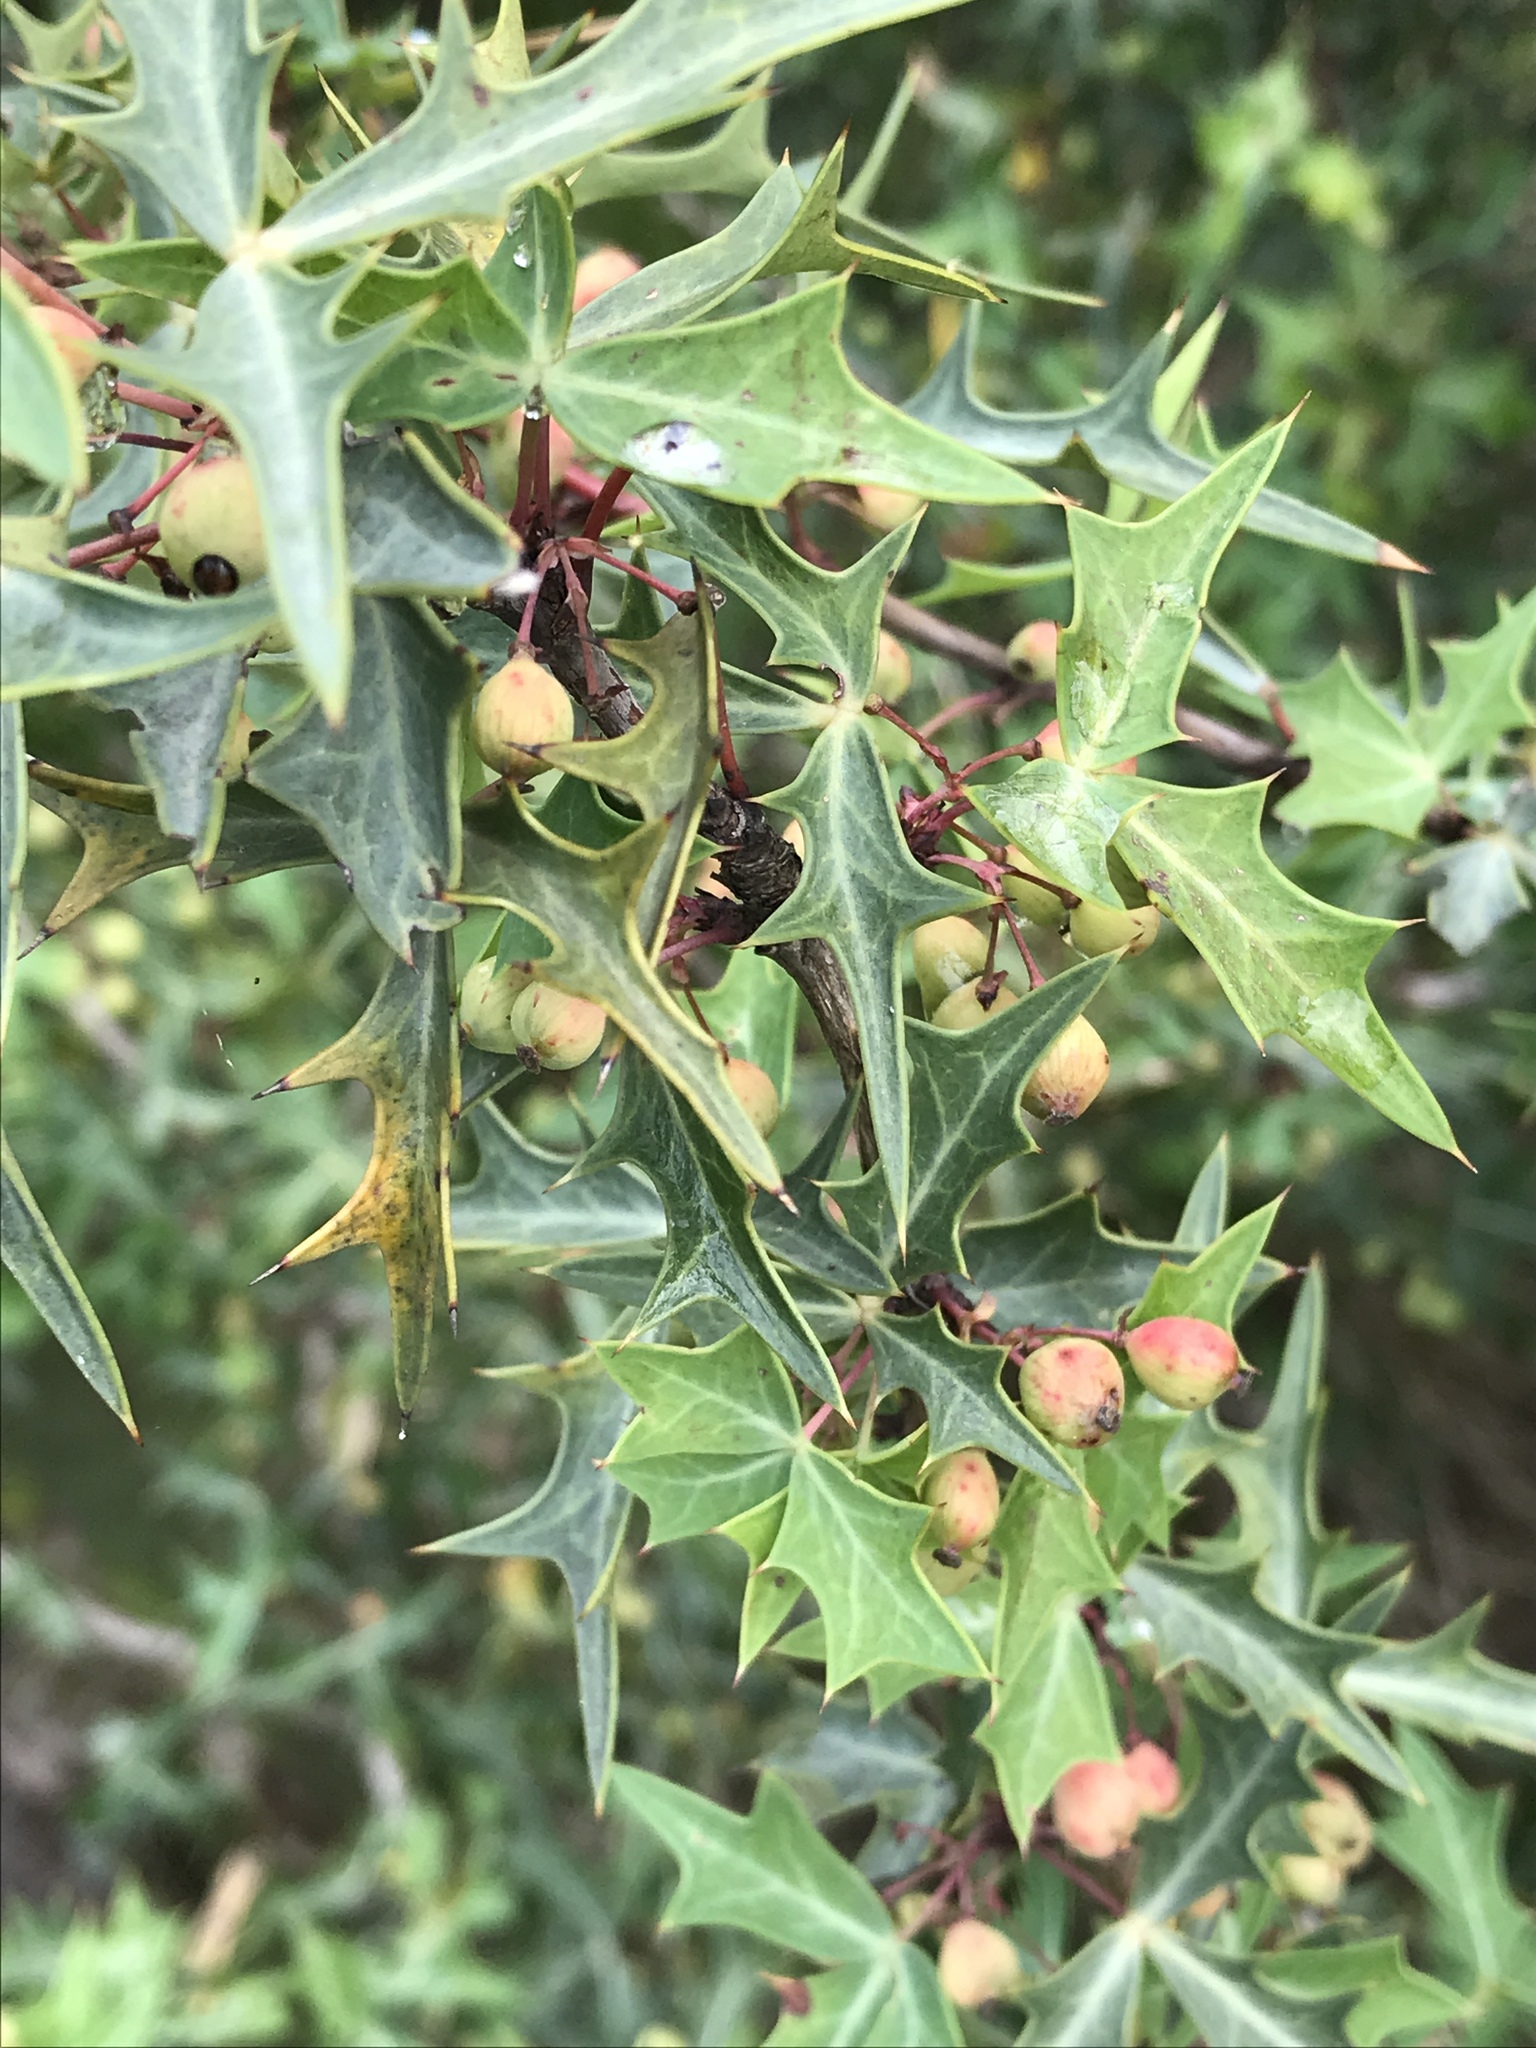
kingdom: Plantae
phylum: Tracheophyta
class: Magnoliopsida
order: Ranunculales
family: Berberidaceae
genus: Alloberberis
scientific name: Alloberberis trifoliolata
